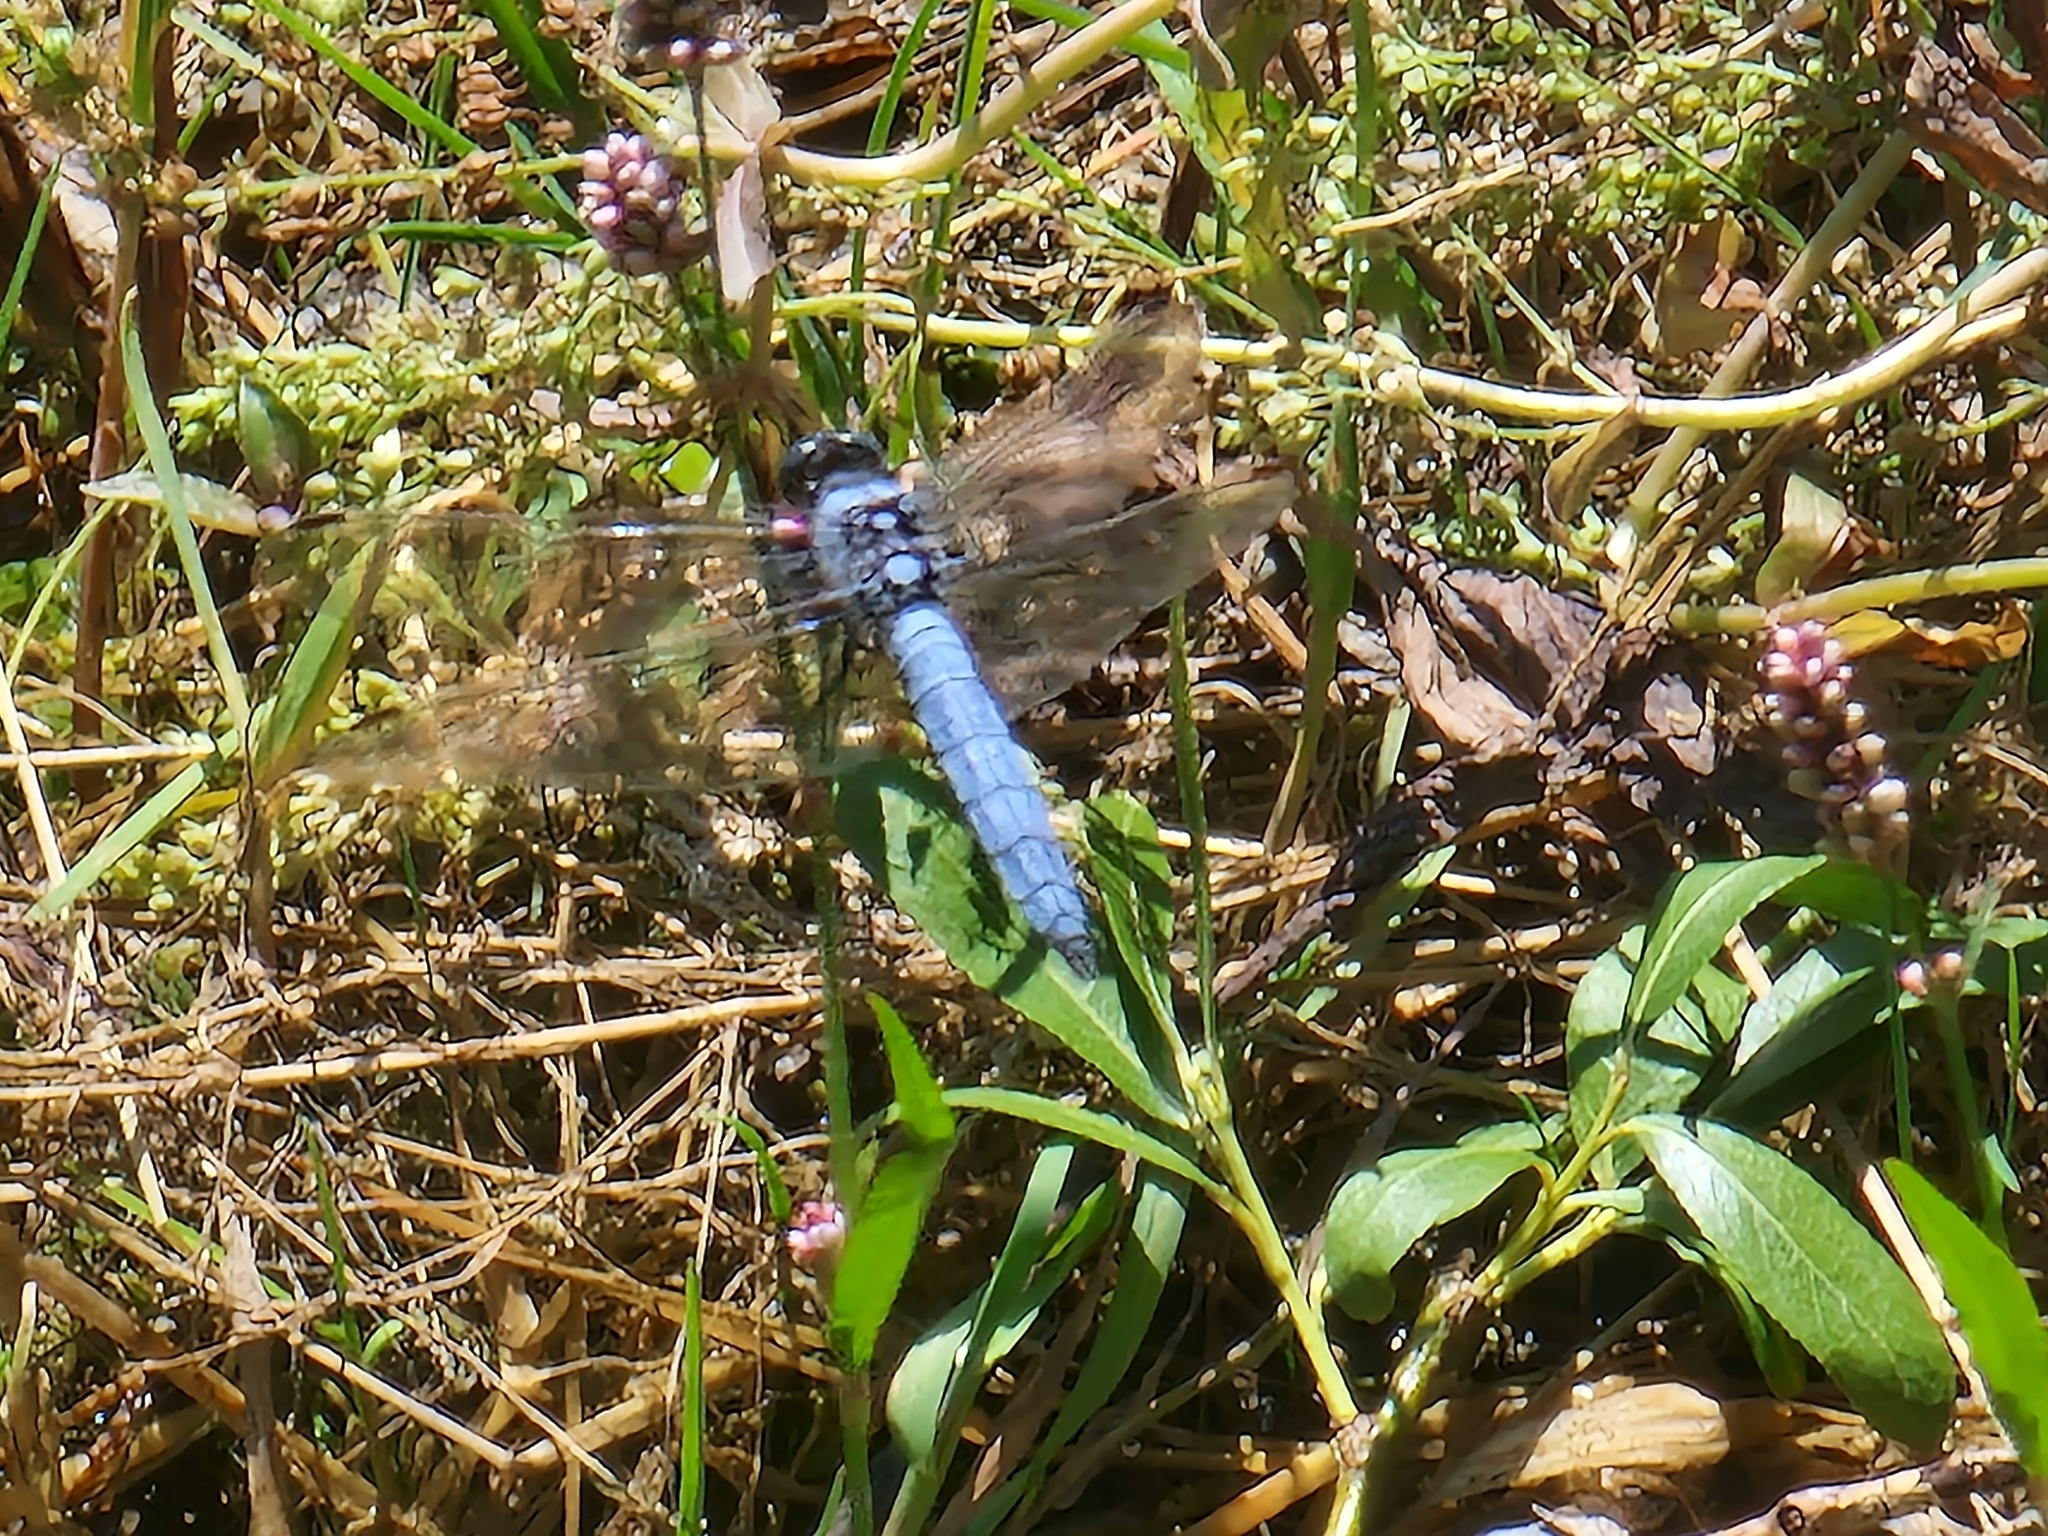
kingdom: Animalia
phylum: Arthropoda
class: Insecta
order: Odonata
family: Libellulidae
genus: Orthetrum
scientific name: Orthetrum brunneum
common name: Southern skimmer
